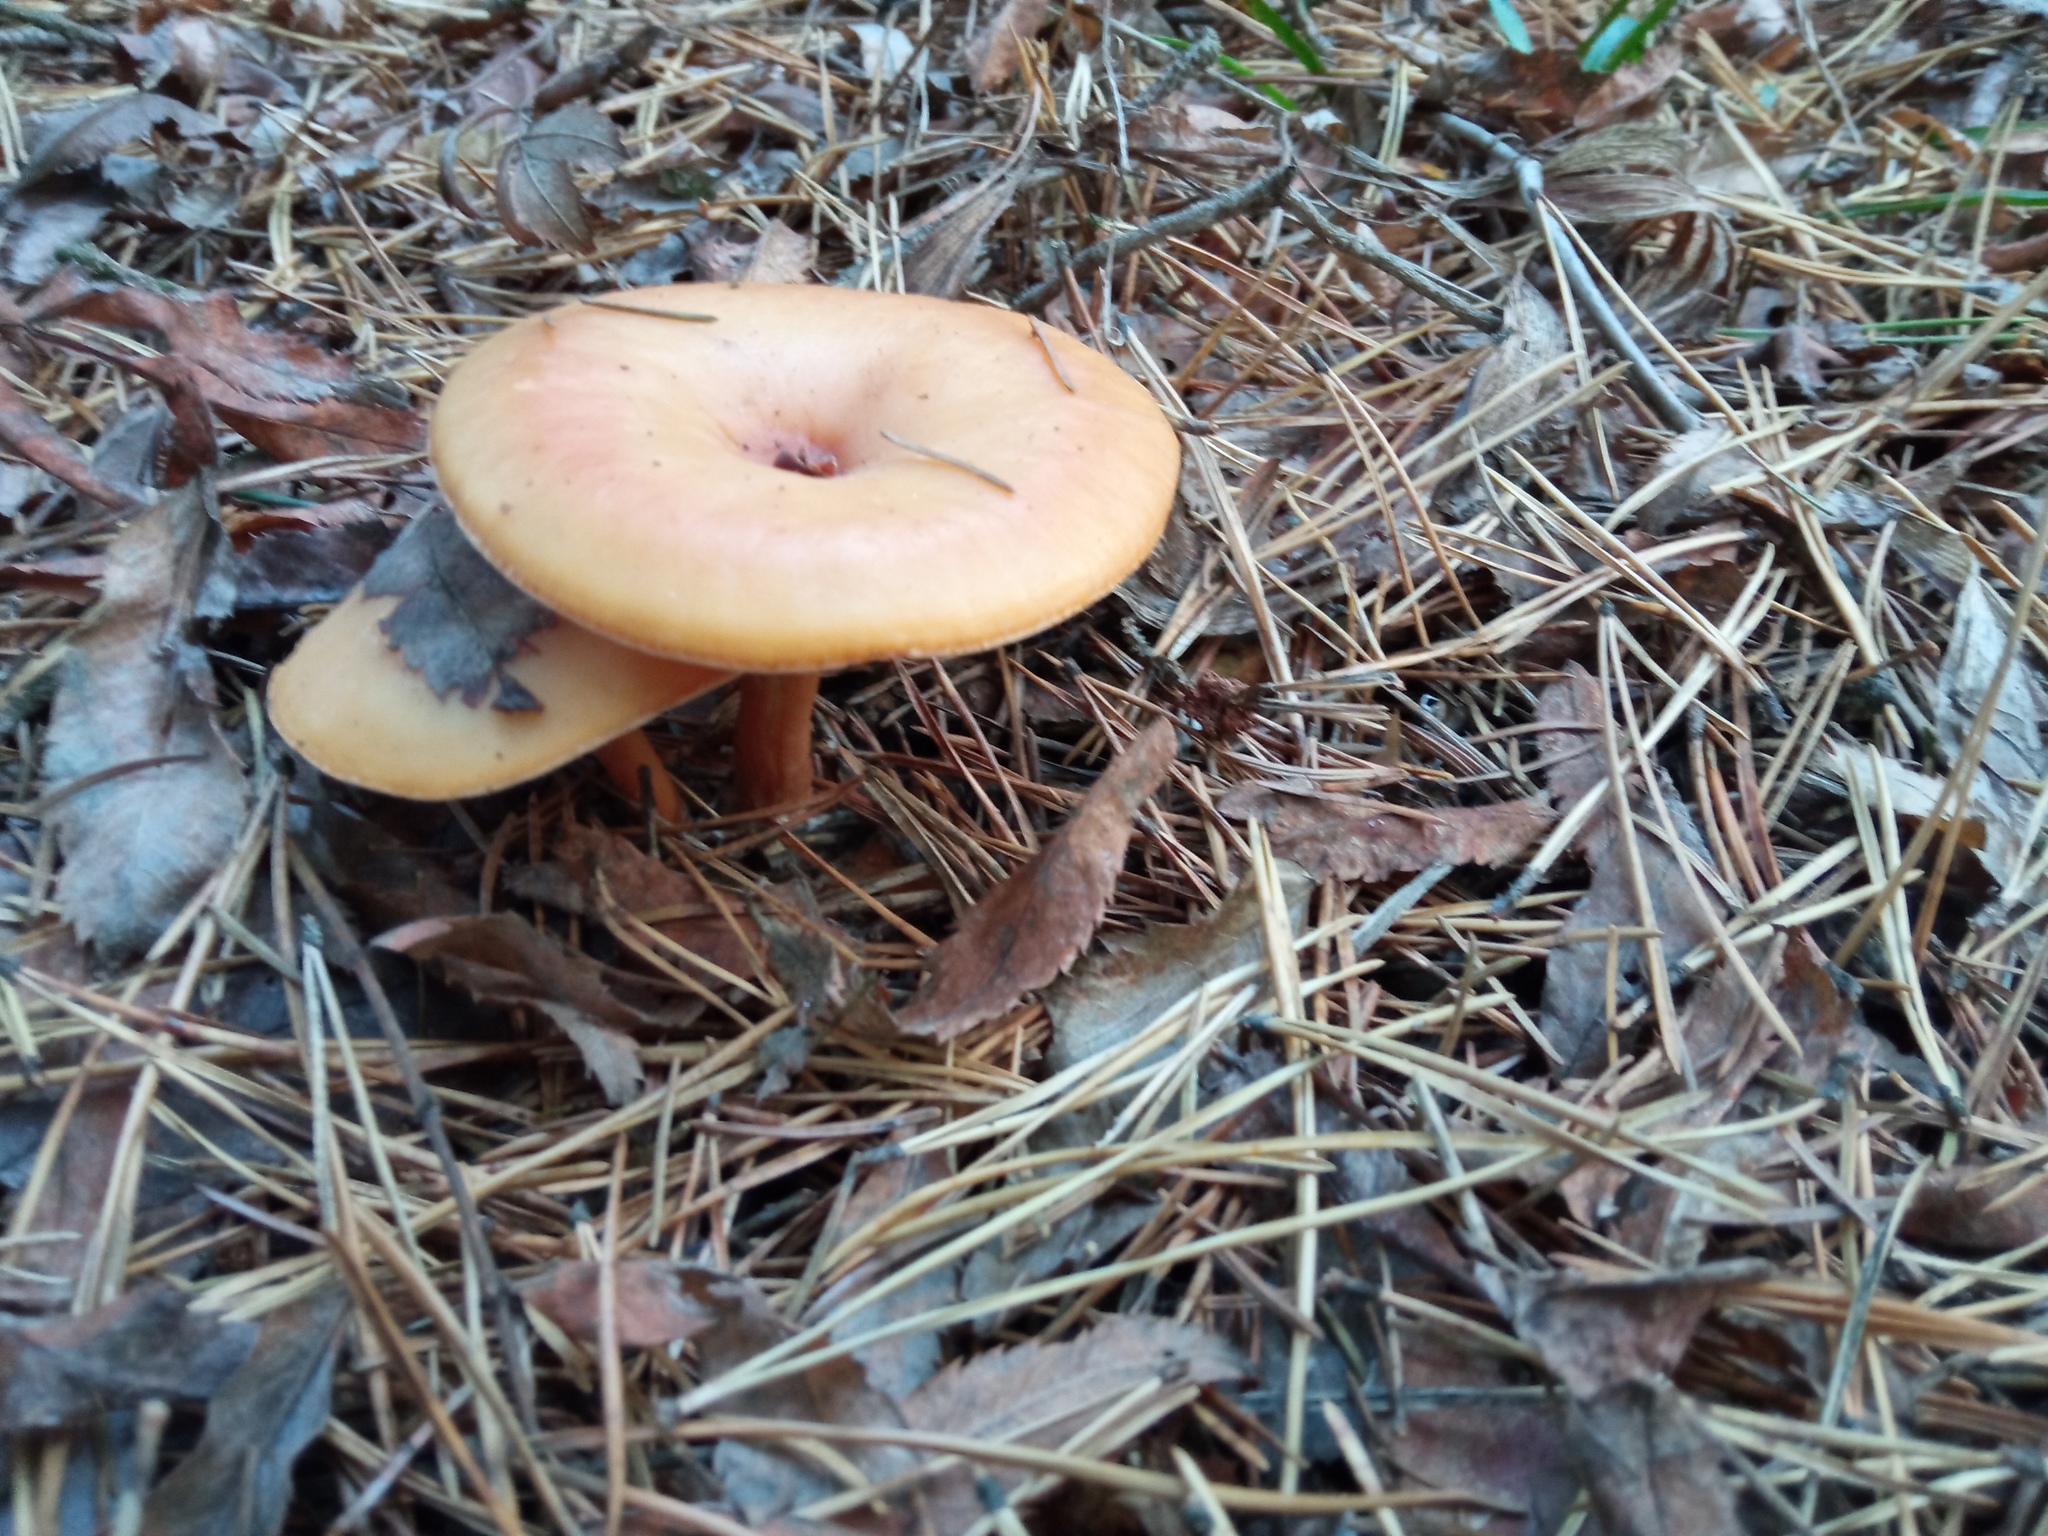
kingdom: Fungi
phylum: Basidiomycota
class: Agaricomycetes
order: Agaricales
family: Tricholomataceae
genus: Paralepista
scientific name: Paralepista flaccida
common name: Tawny funnel cap
